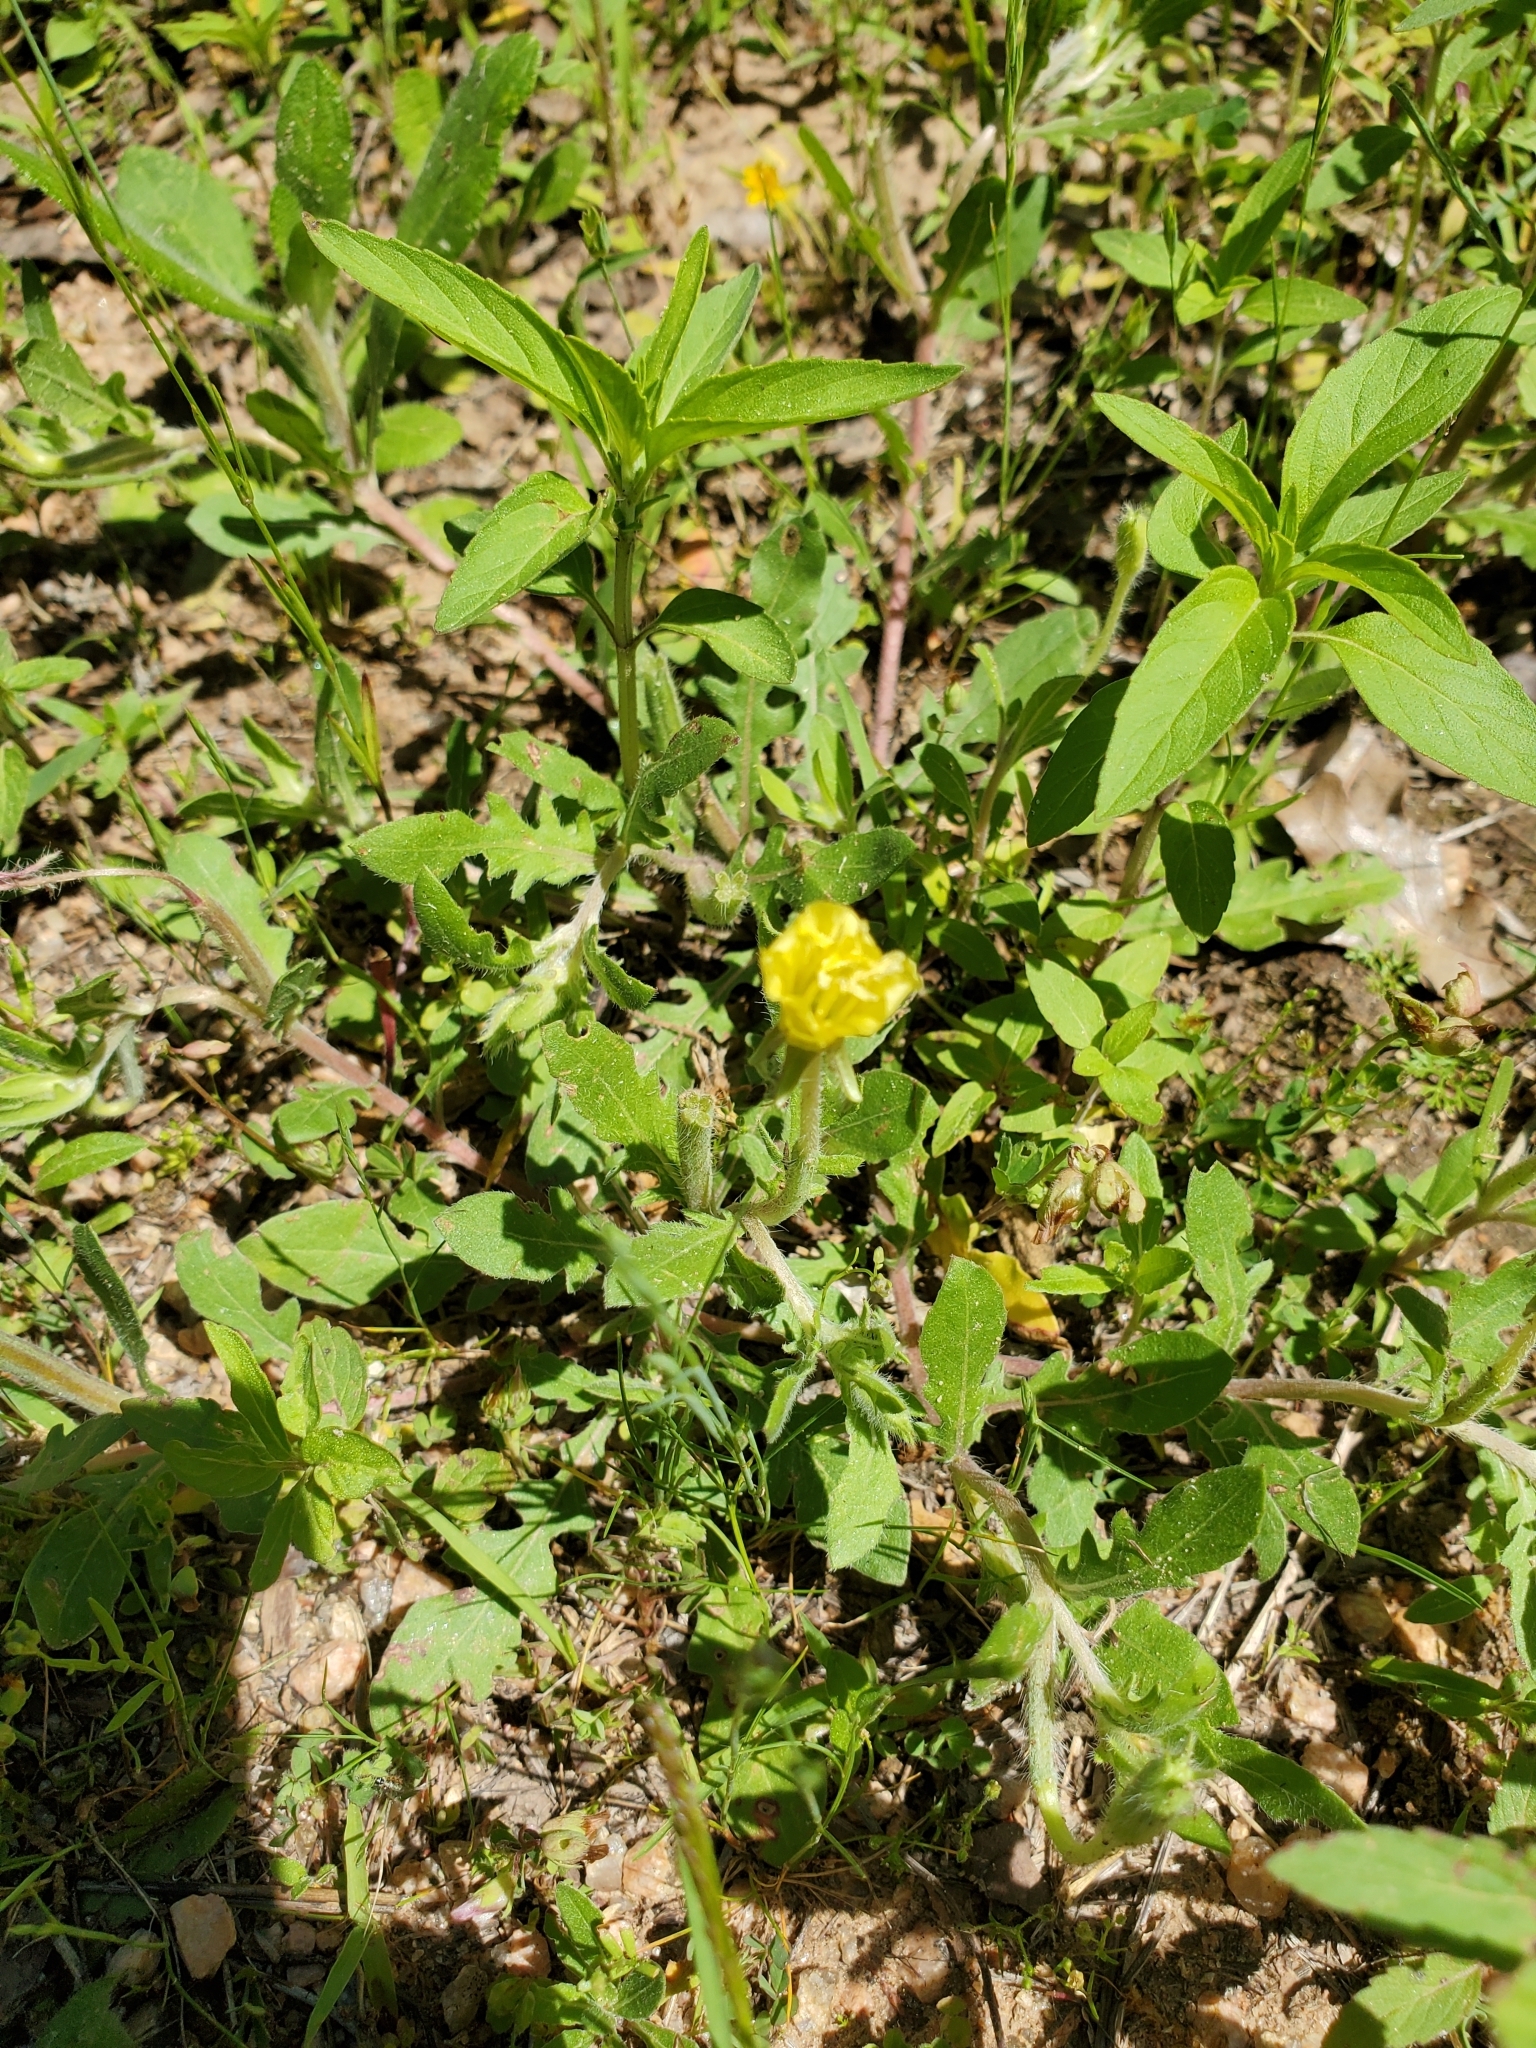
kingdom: Plantae
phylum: Tracheophyta
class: Magnoliopsida
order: Myrtales
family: Onagraceae
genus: Oenothera
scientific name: Oenothera laciniata
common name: Cut-leaved evening-primrose
